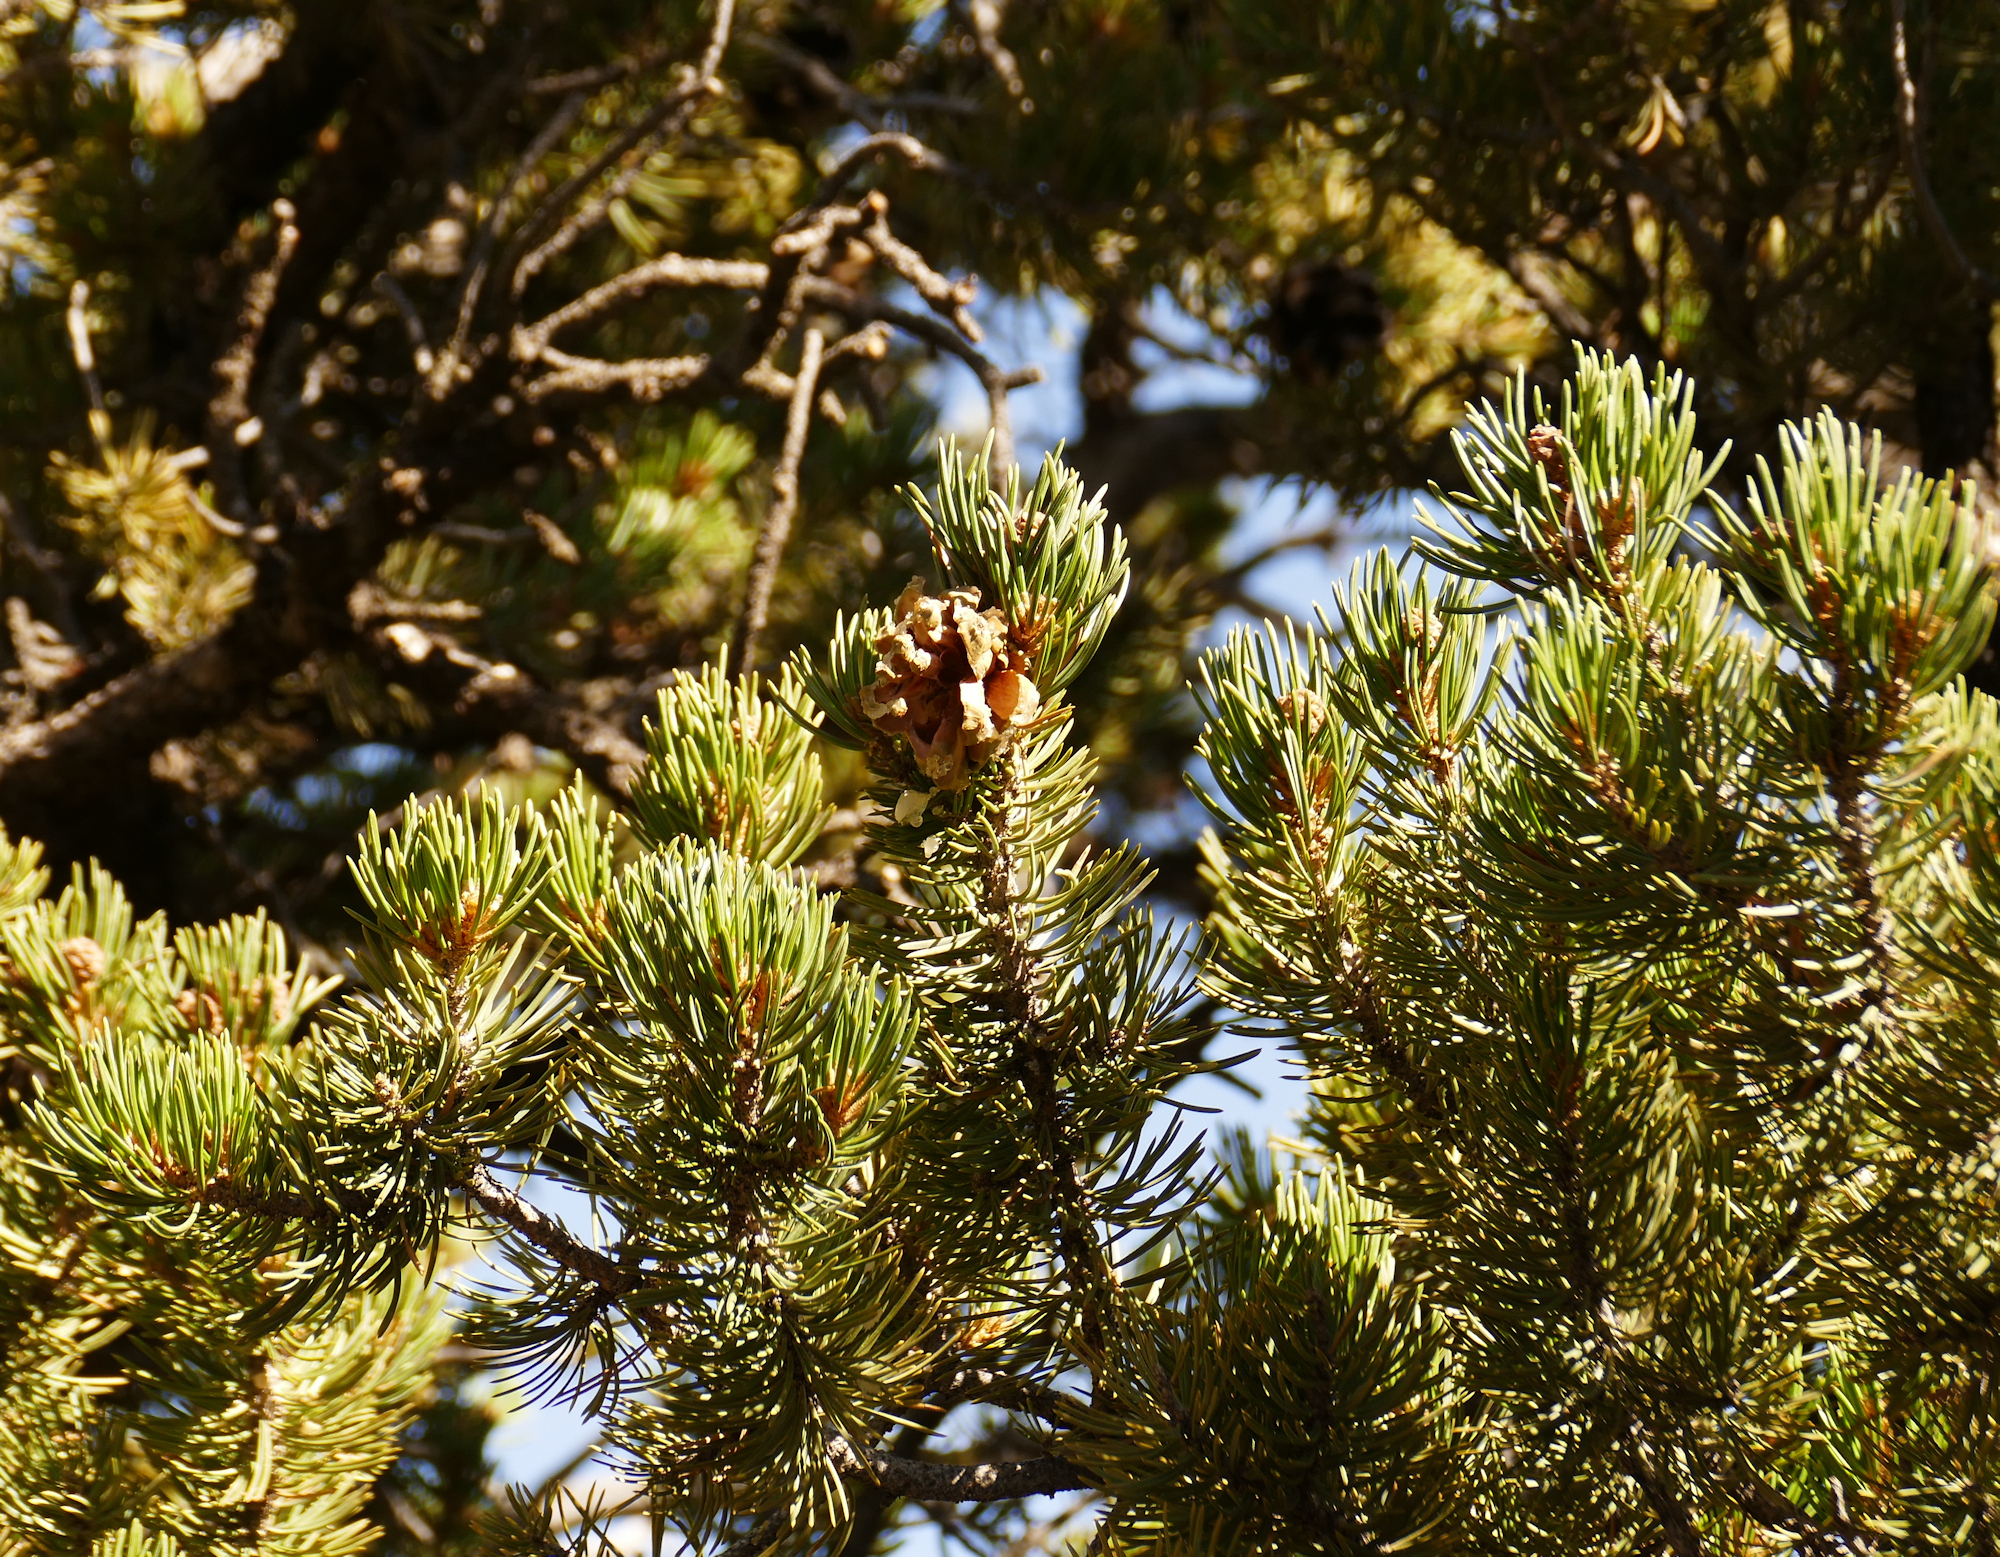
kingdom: Plantae
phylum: Tracheophyta
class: Pinopsida
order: Pinales
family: Pinaceae
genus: Pinus
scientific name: Pinus edulis
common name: Colorado pinyon
